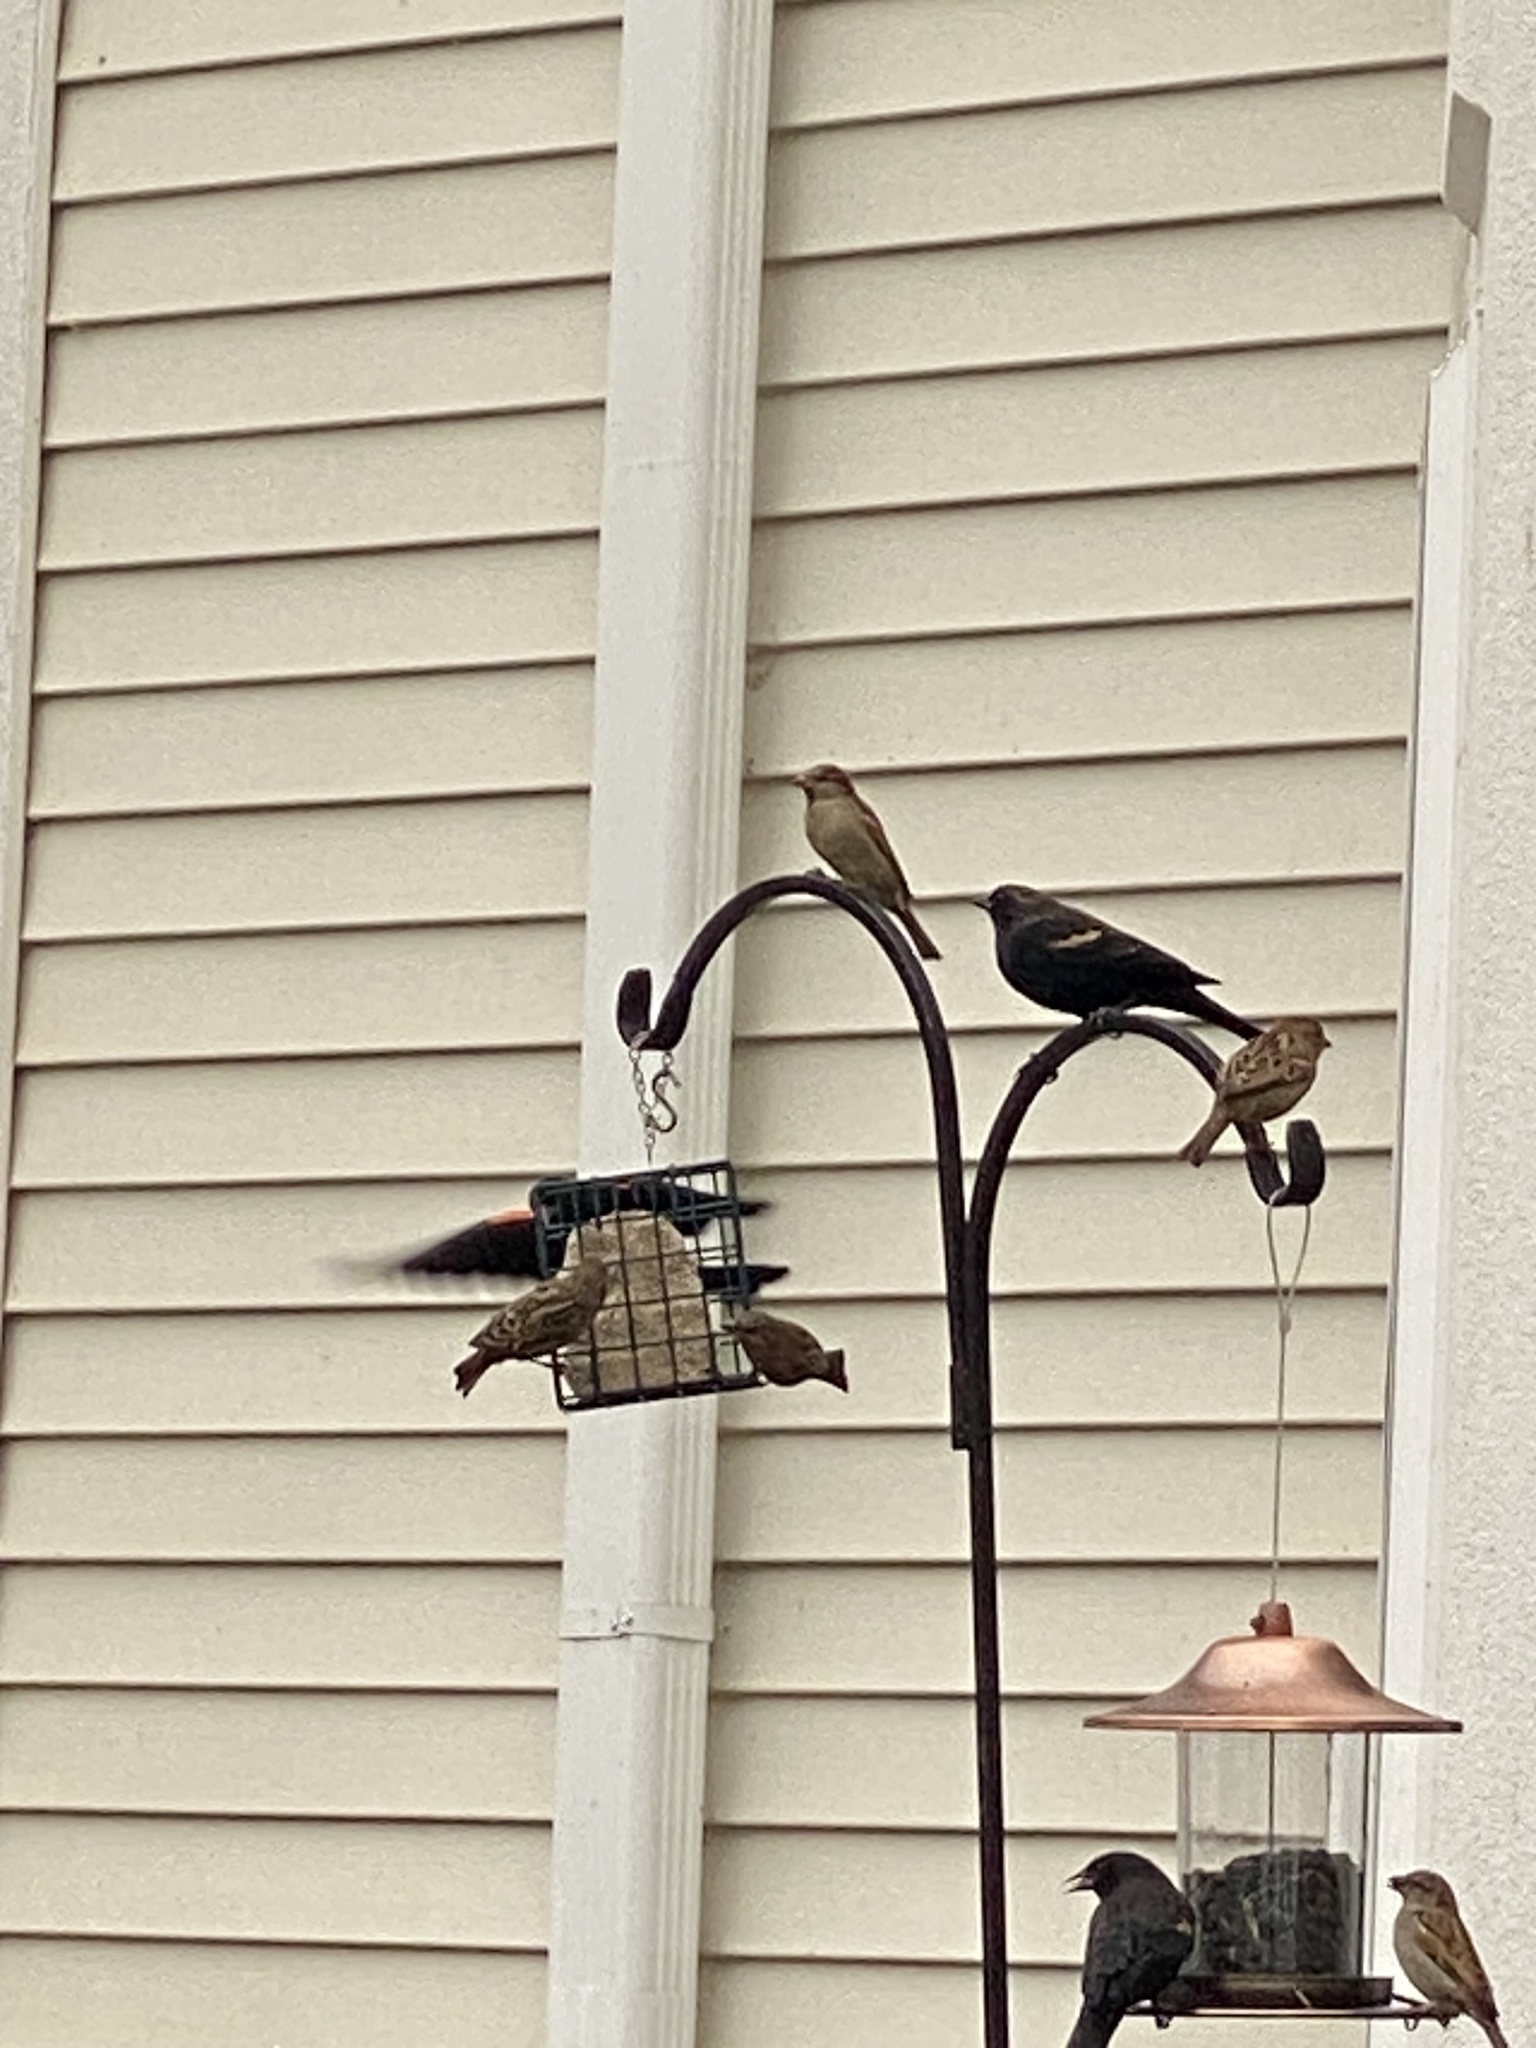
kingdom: Animalia
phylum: Chordata
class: Aves
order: Passeriformes
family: Icteridae
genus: Agelaius
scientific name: Agelaius phoeniceus
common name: Red-winged blackbird
